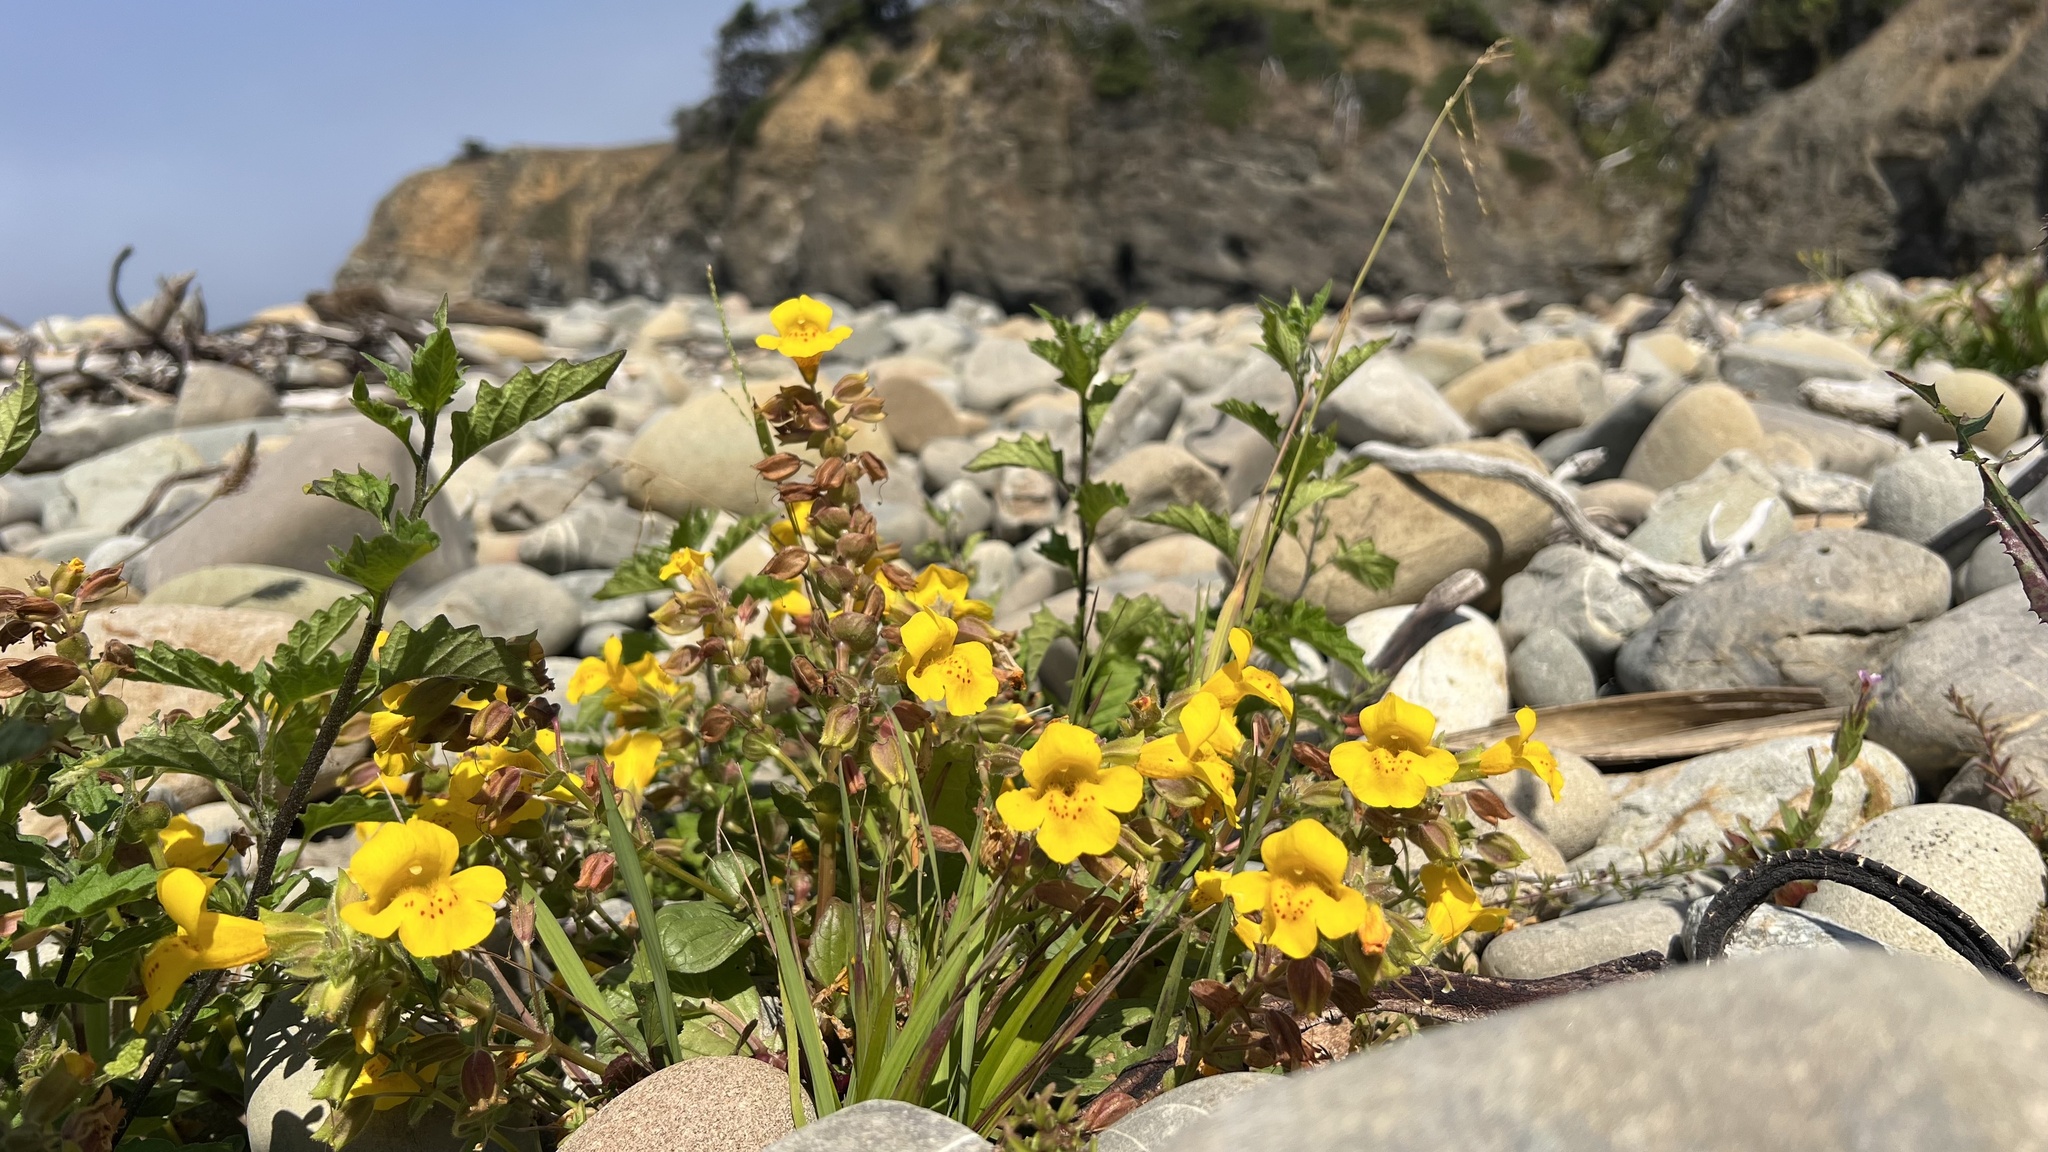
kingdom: Plantae
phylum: Tracheophyta
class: Magnoliopsida
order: Lamiales
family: Phrymaceae
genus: Erythranthe
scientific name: Erythranthe grandis
